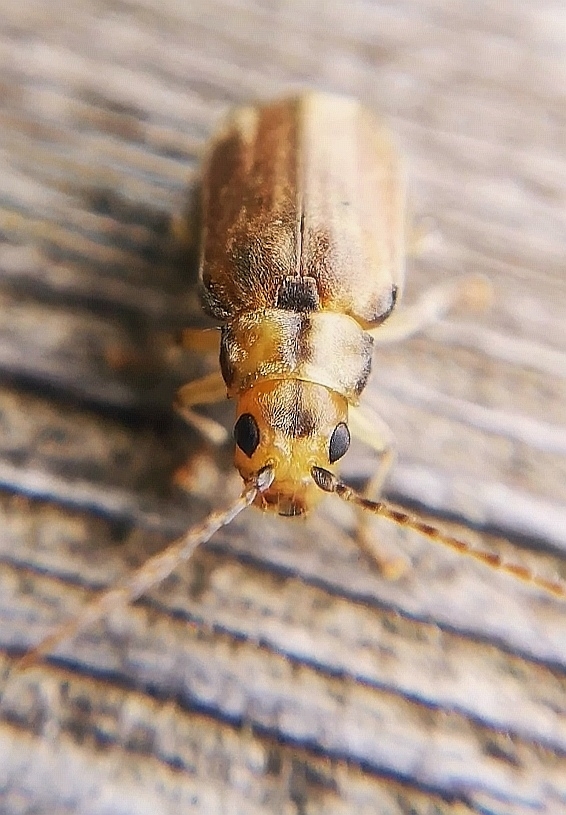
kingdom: Animalia
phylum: Arthropoda
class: Insecta
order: Coleoptera
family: Chrysomelidae
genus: Pyrrhalta
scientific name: Pyrrhalta viburni
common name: Guelder-rose leaf beetle
